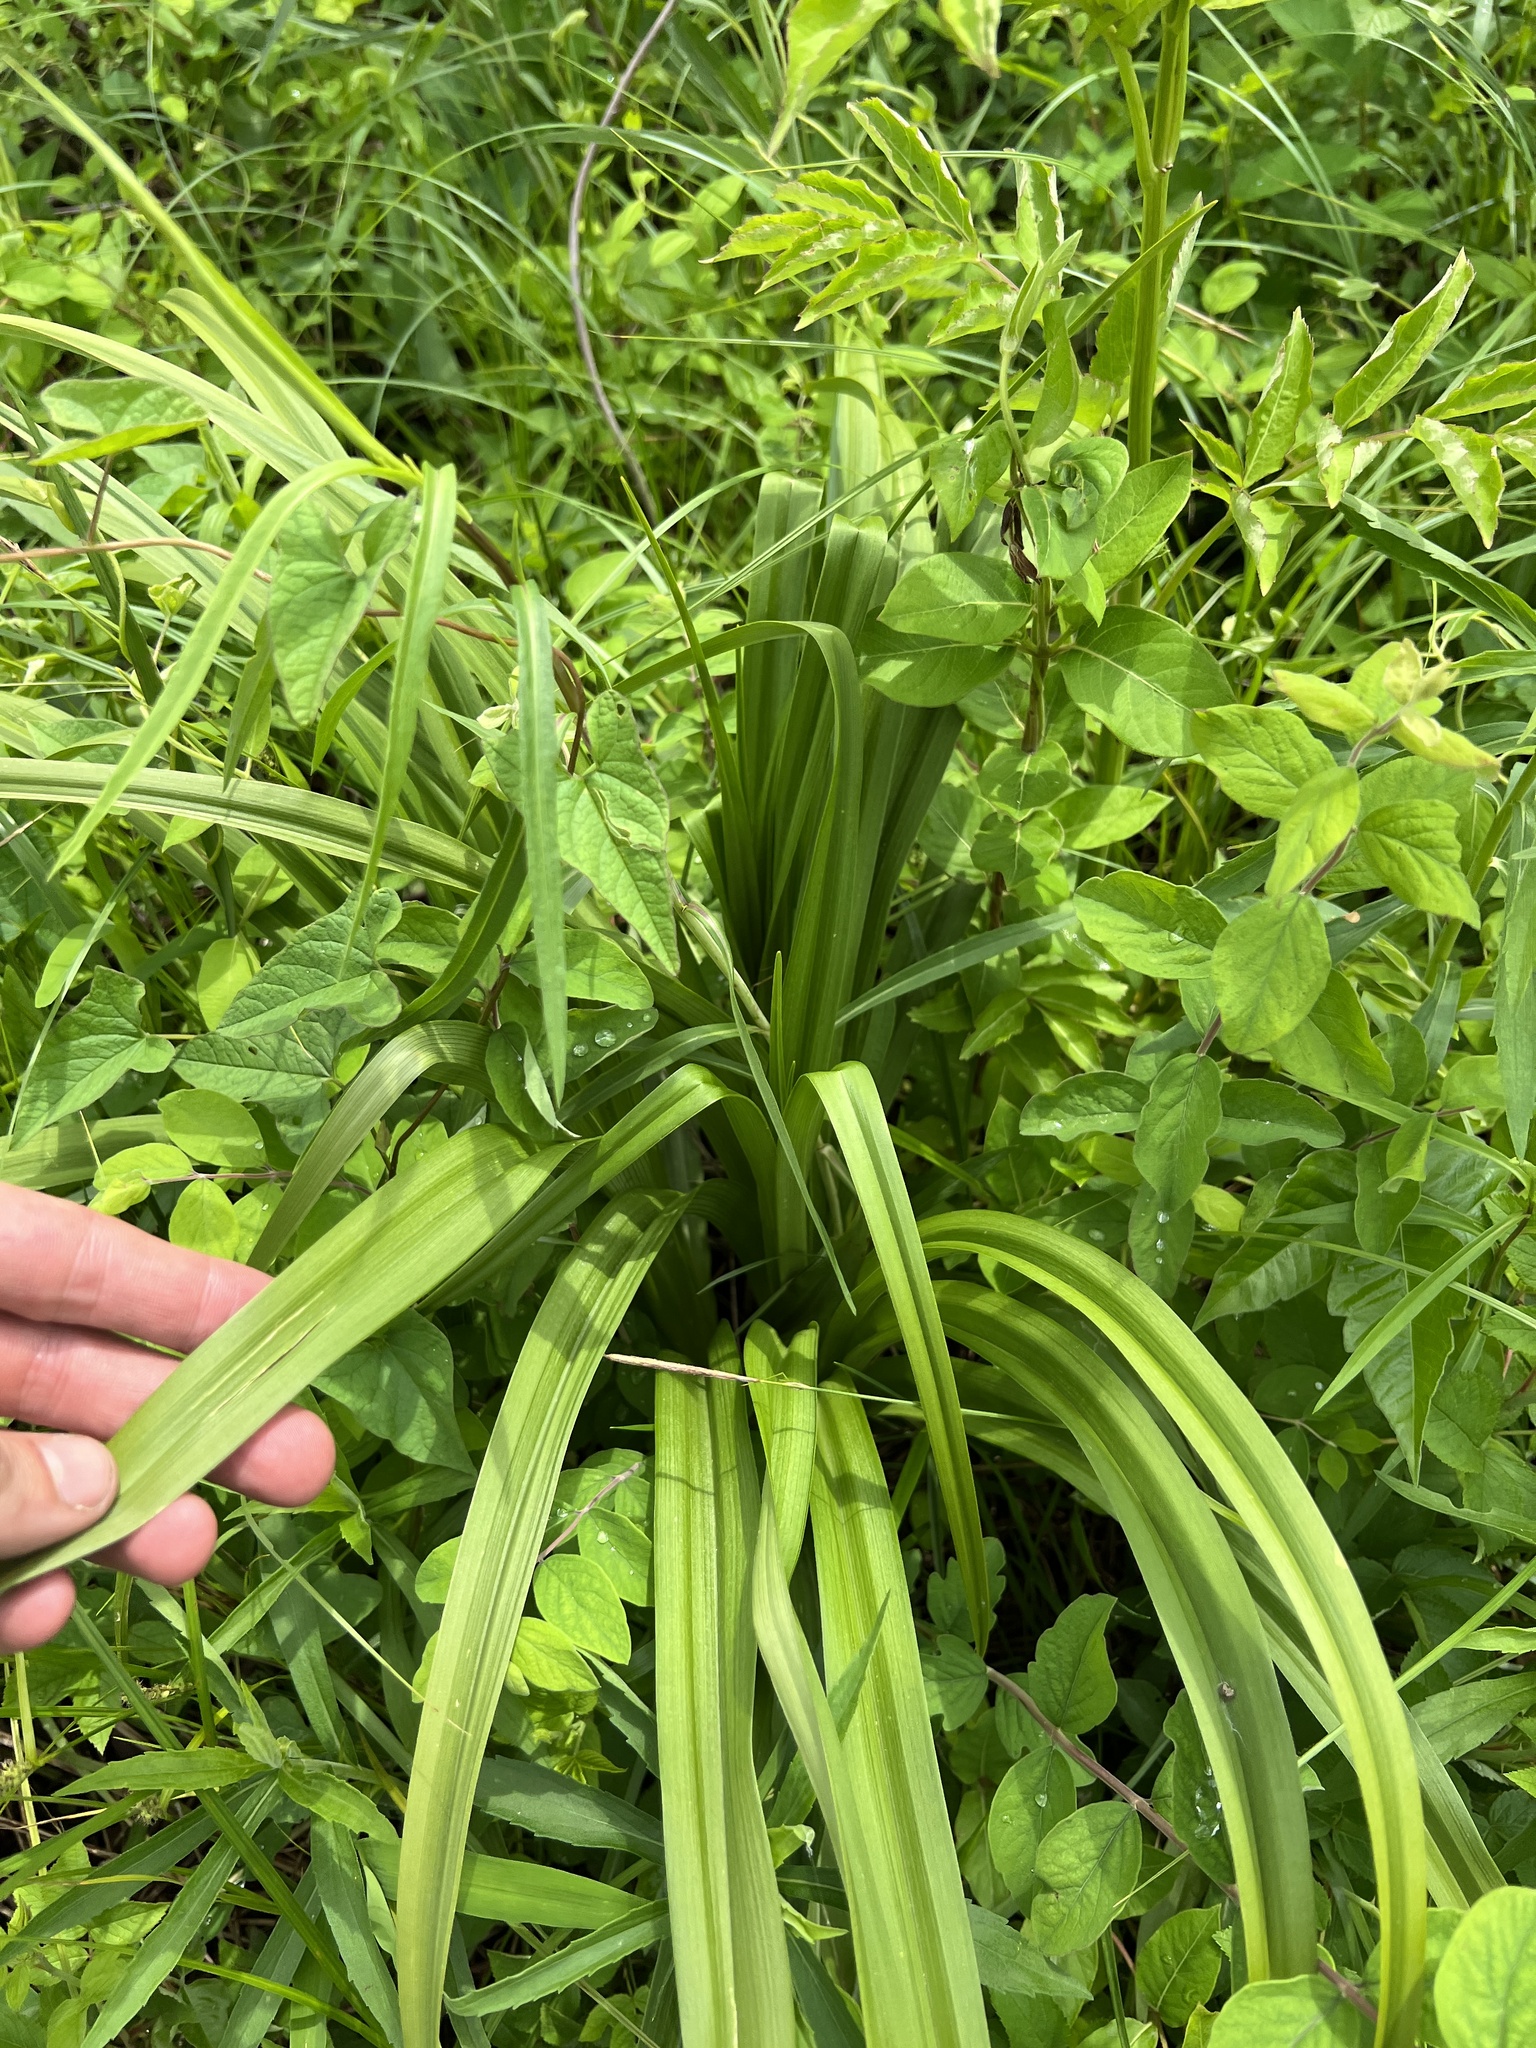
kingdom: Plantae
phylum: Tracheophyta
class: Liliopsida
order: Liliales
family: Melanthiaceae
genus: Melanthium
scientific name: Melanthium virginicum
